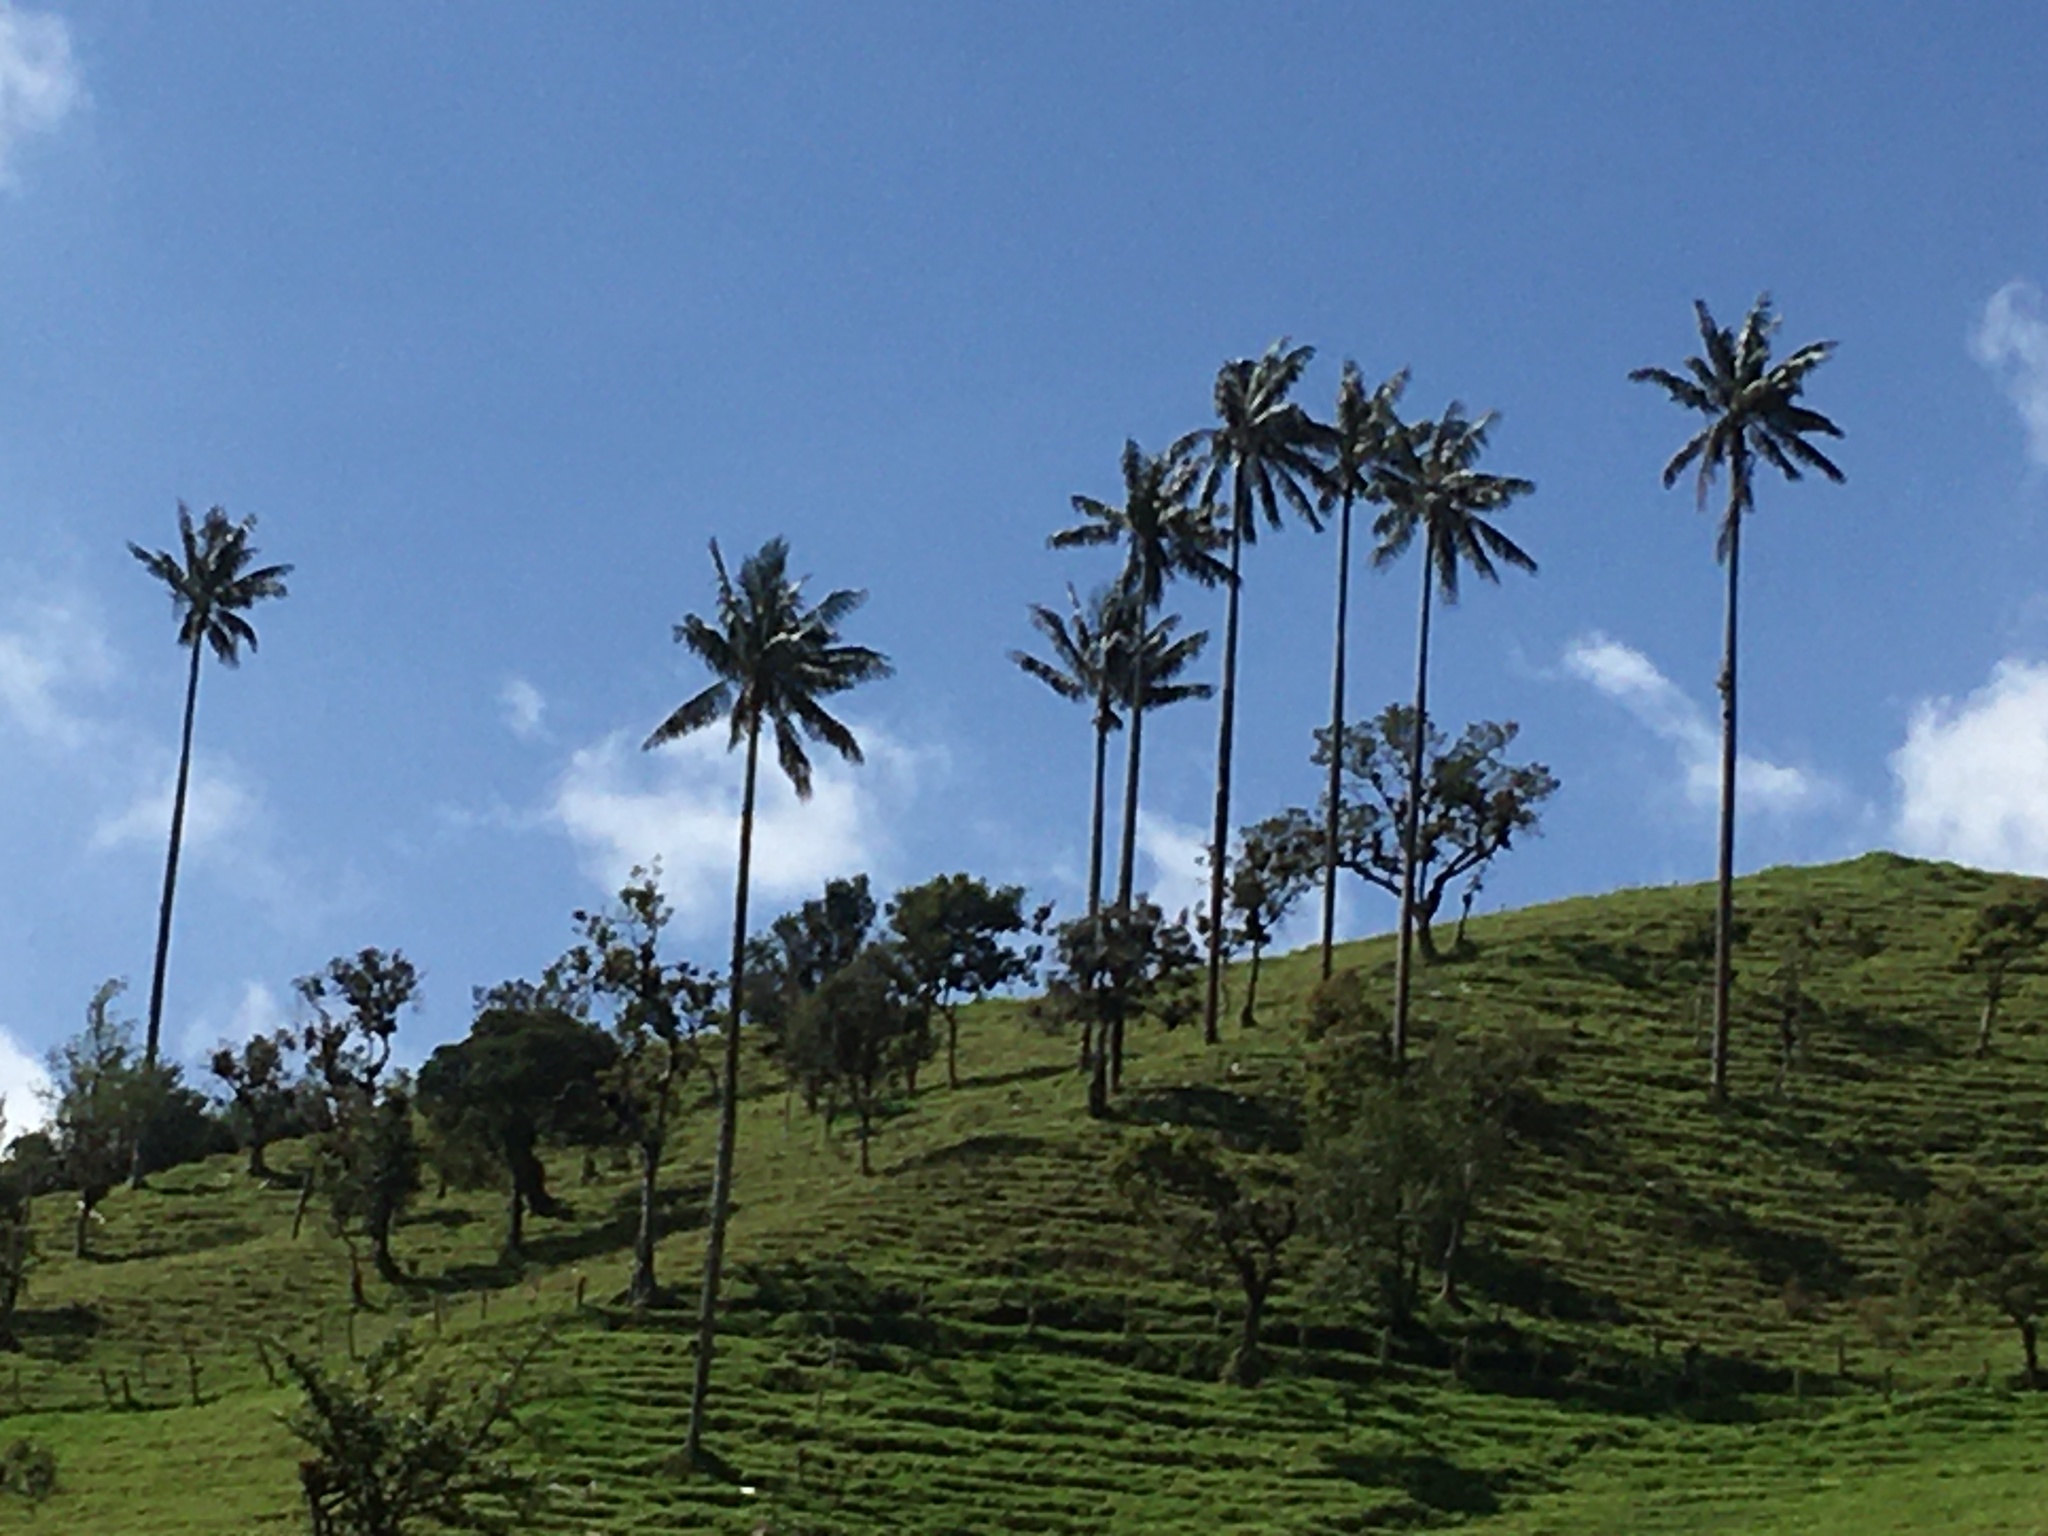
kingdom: Plantae
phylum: Tracheophyta
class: Liliopsida
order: Arecales
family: Arecaceae
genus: Ceroxylon
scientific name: Ceroxylon quindiuense
